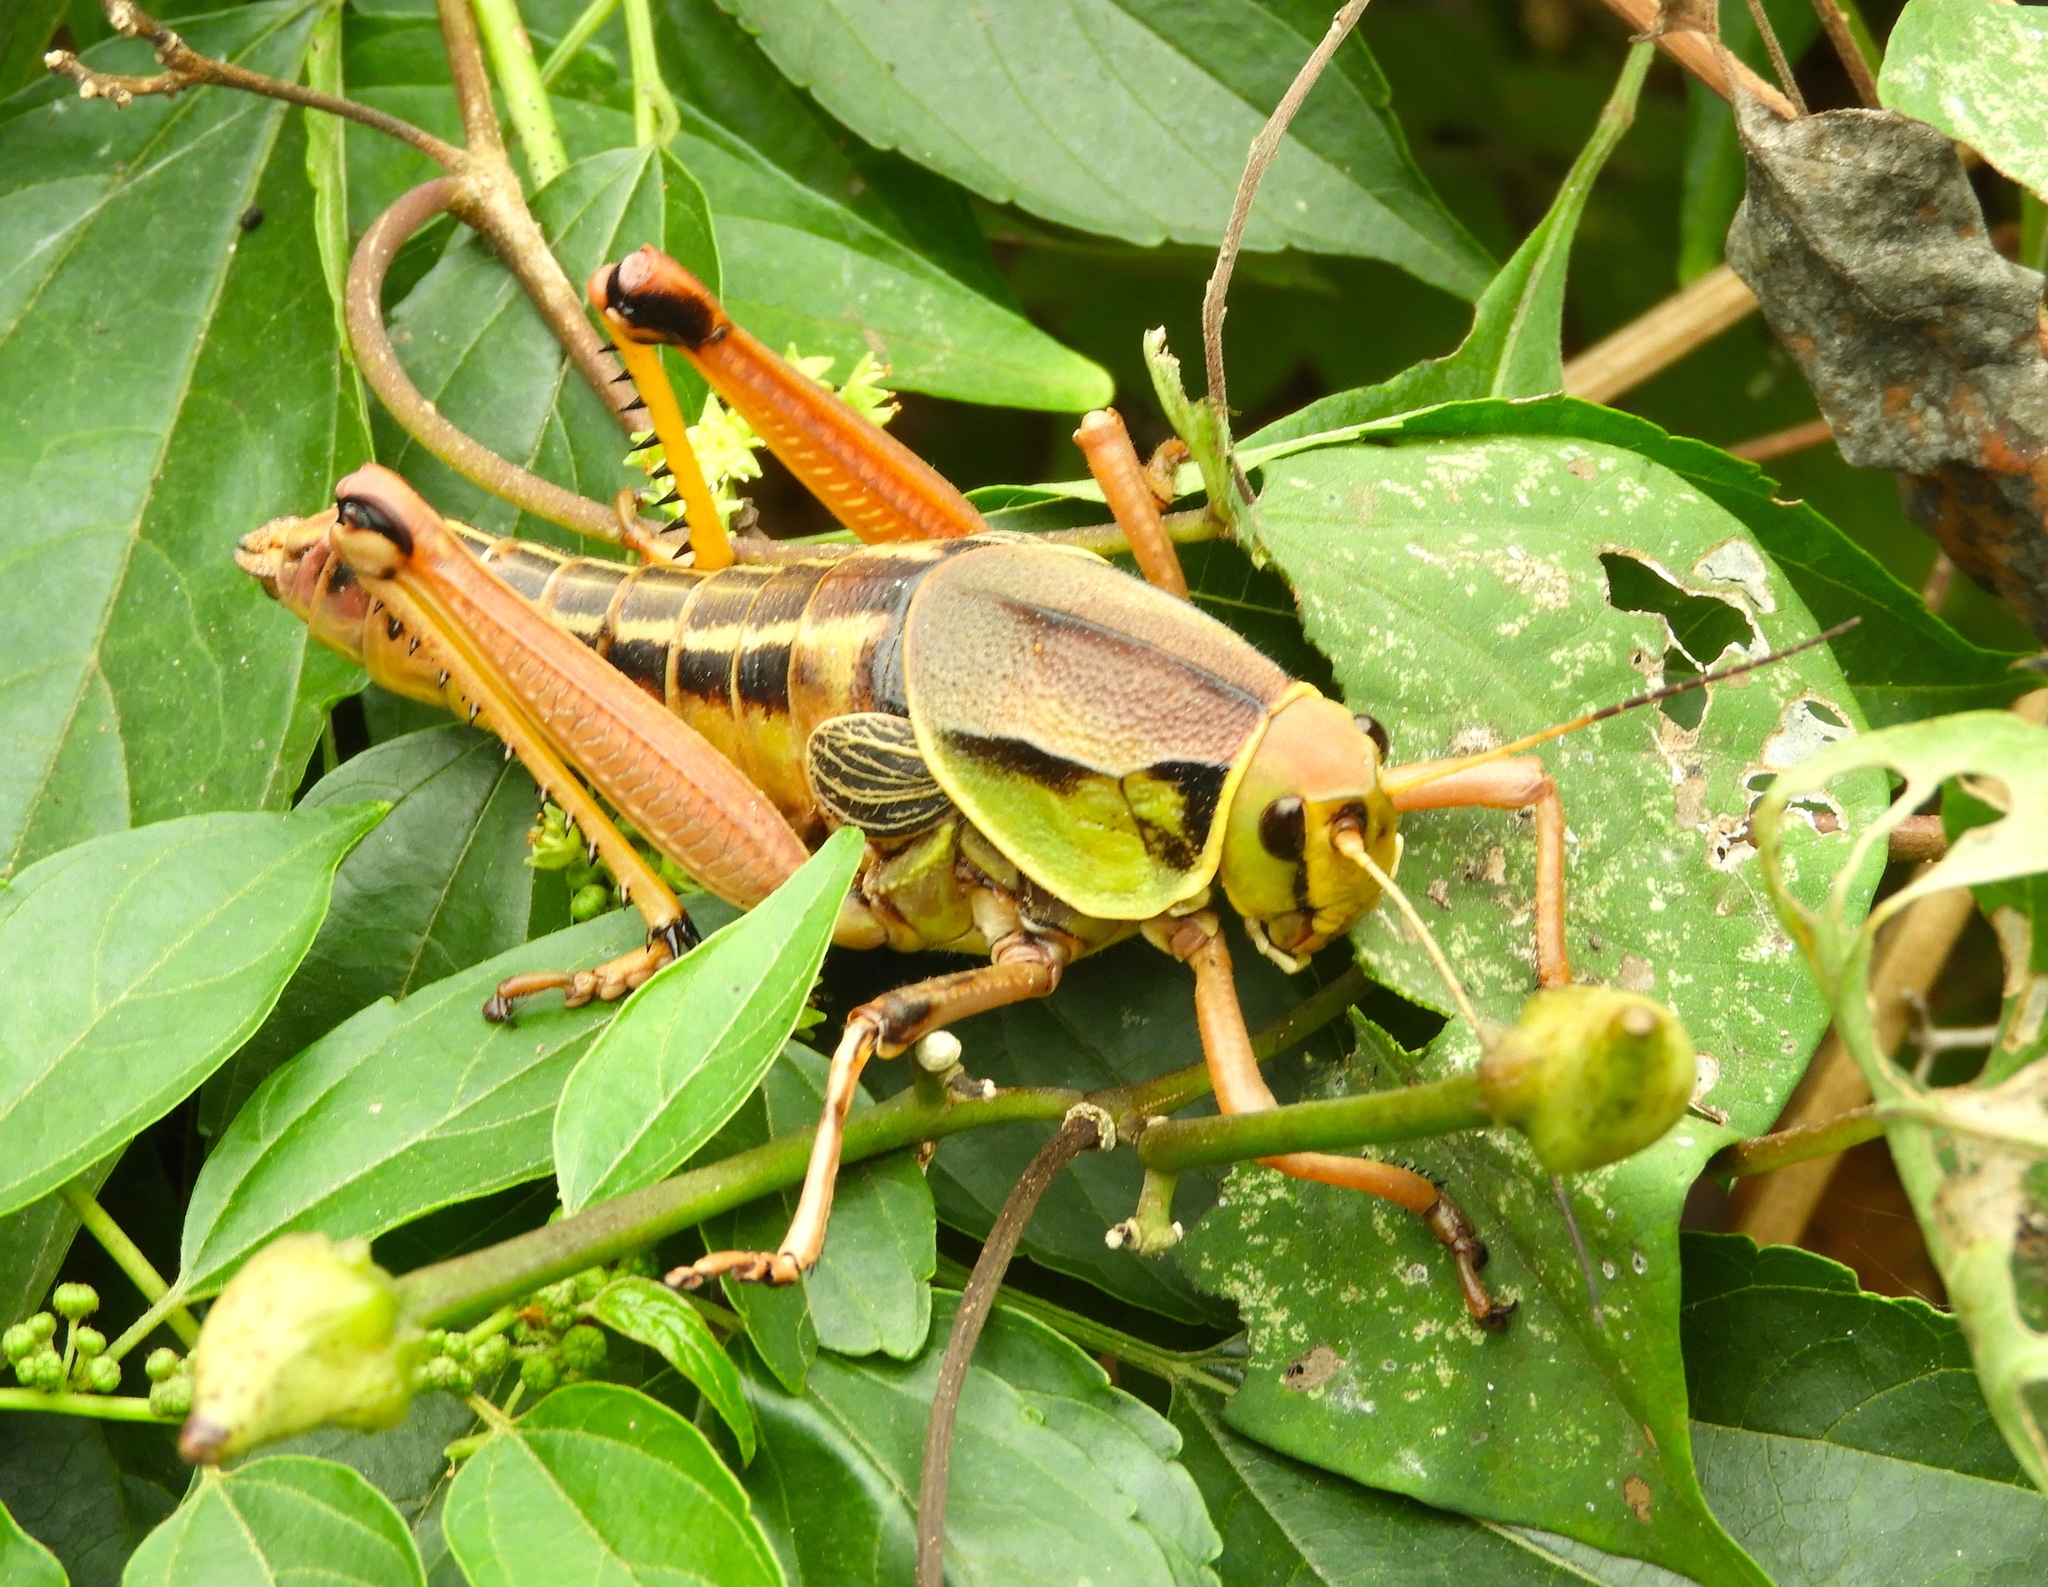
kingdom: Animalia
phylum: Arthropoda
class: Insecta
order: Orthoptera
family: Romaleidae
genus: Brachystola
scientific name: Brachystola behrensii
